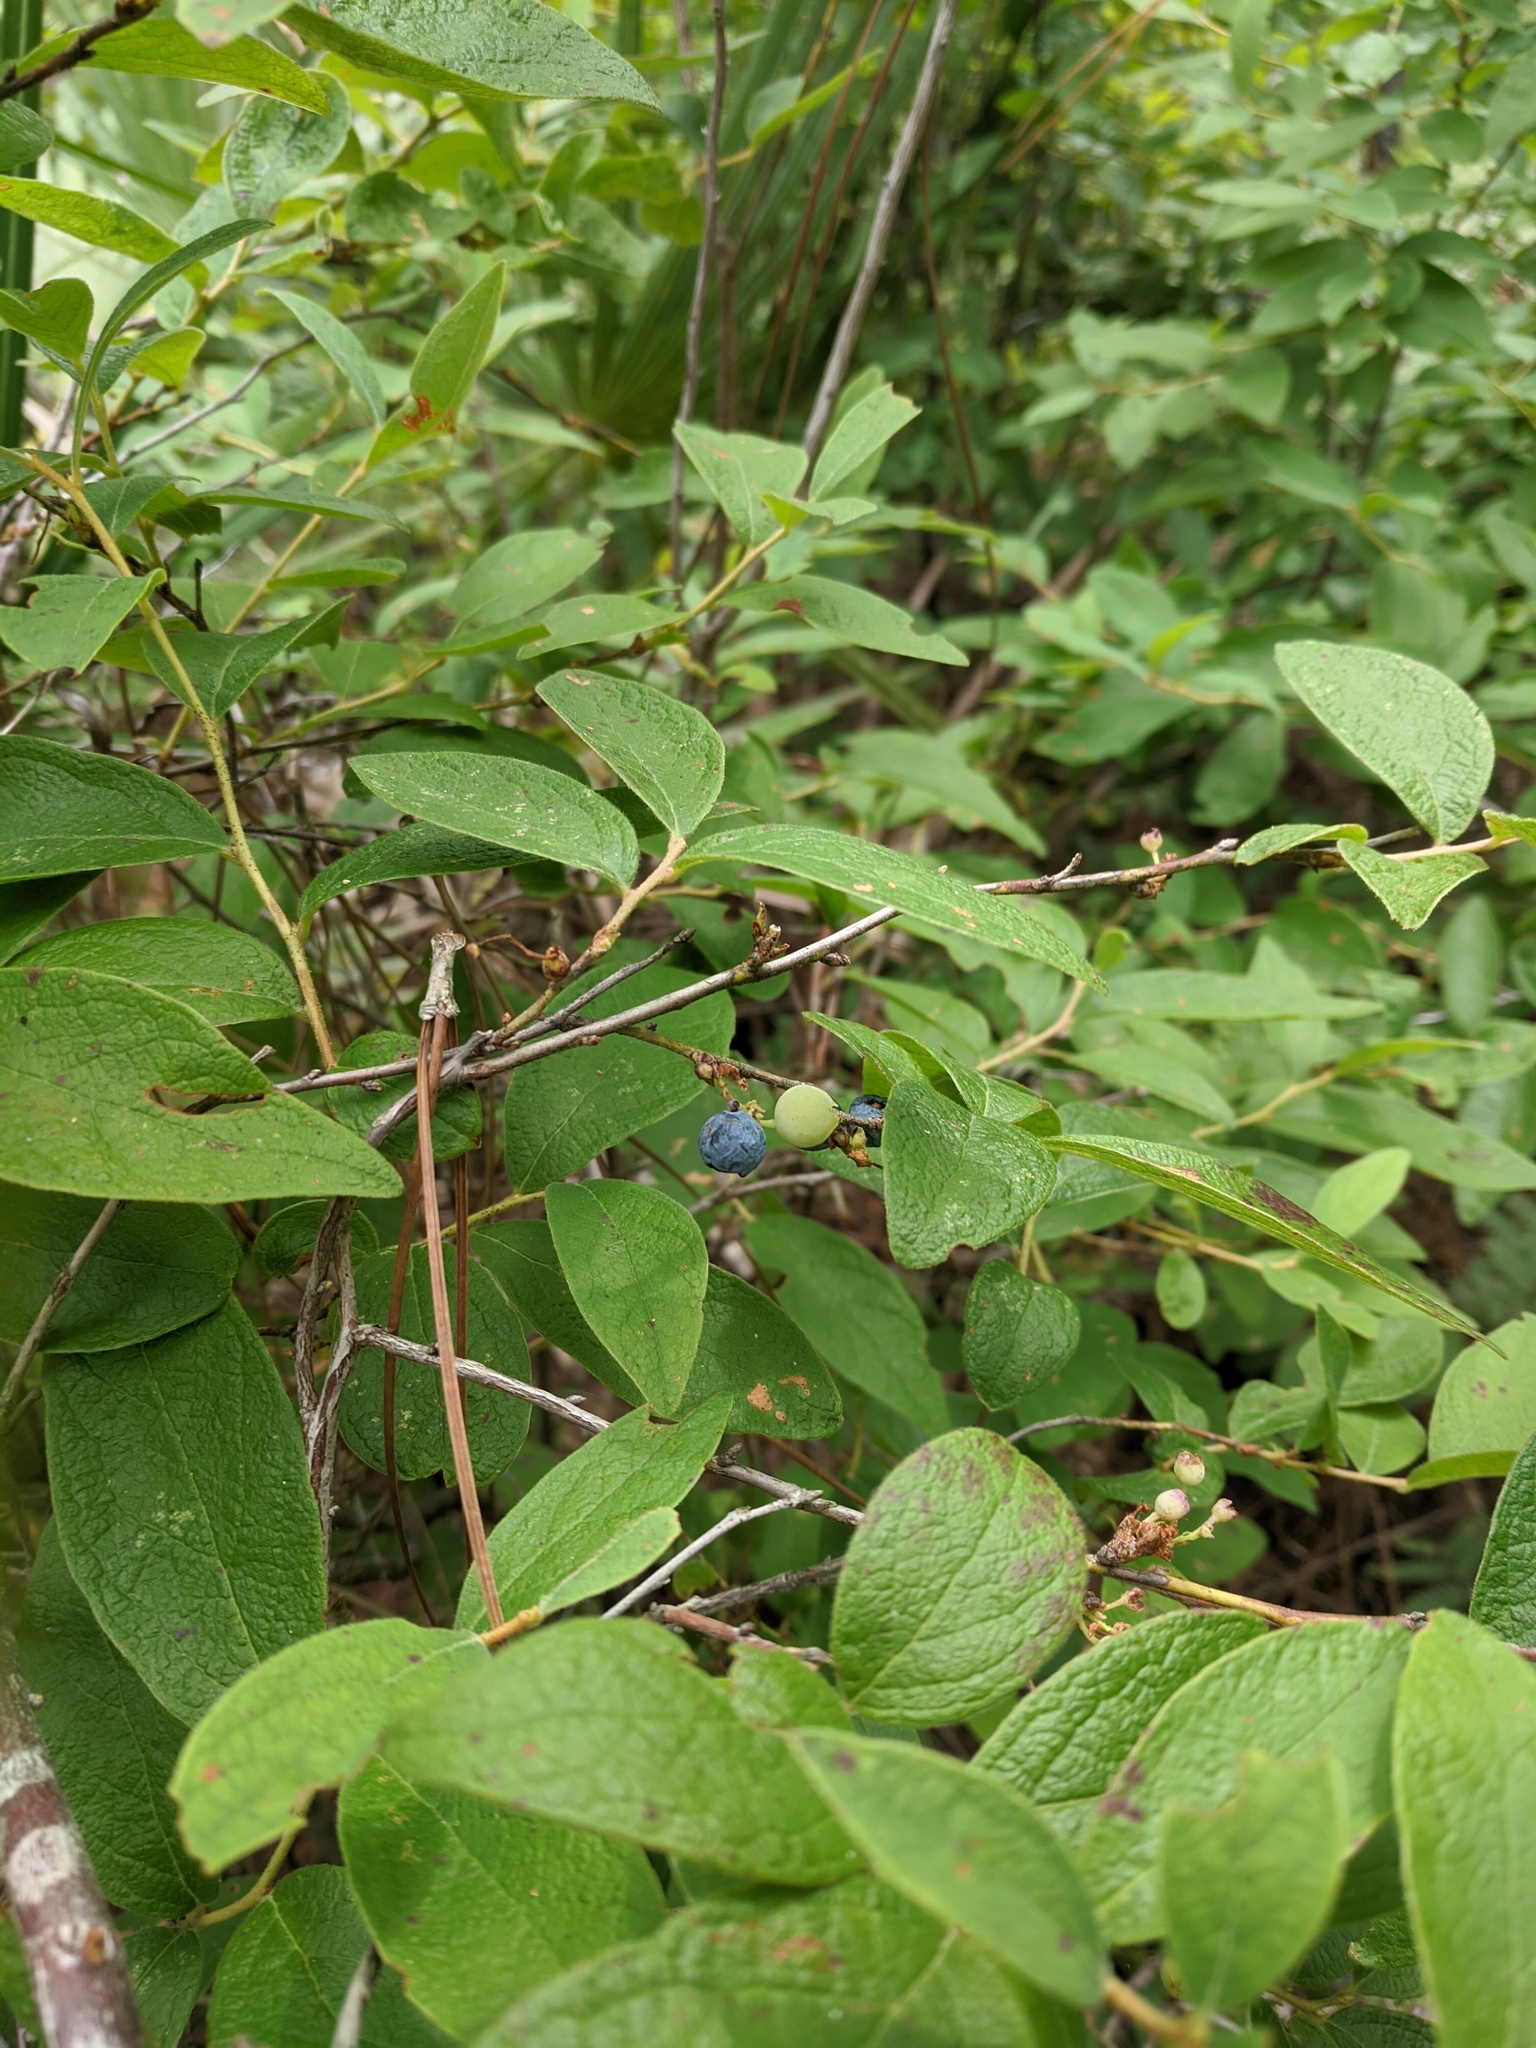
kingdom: Plantae
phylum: Tracheophyta
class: Magnoliopsida
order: Ericales
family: Ericaceae
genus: Gaylussacia
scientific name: Gaylussacia tomentosa
